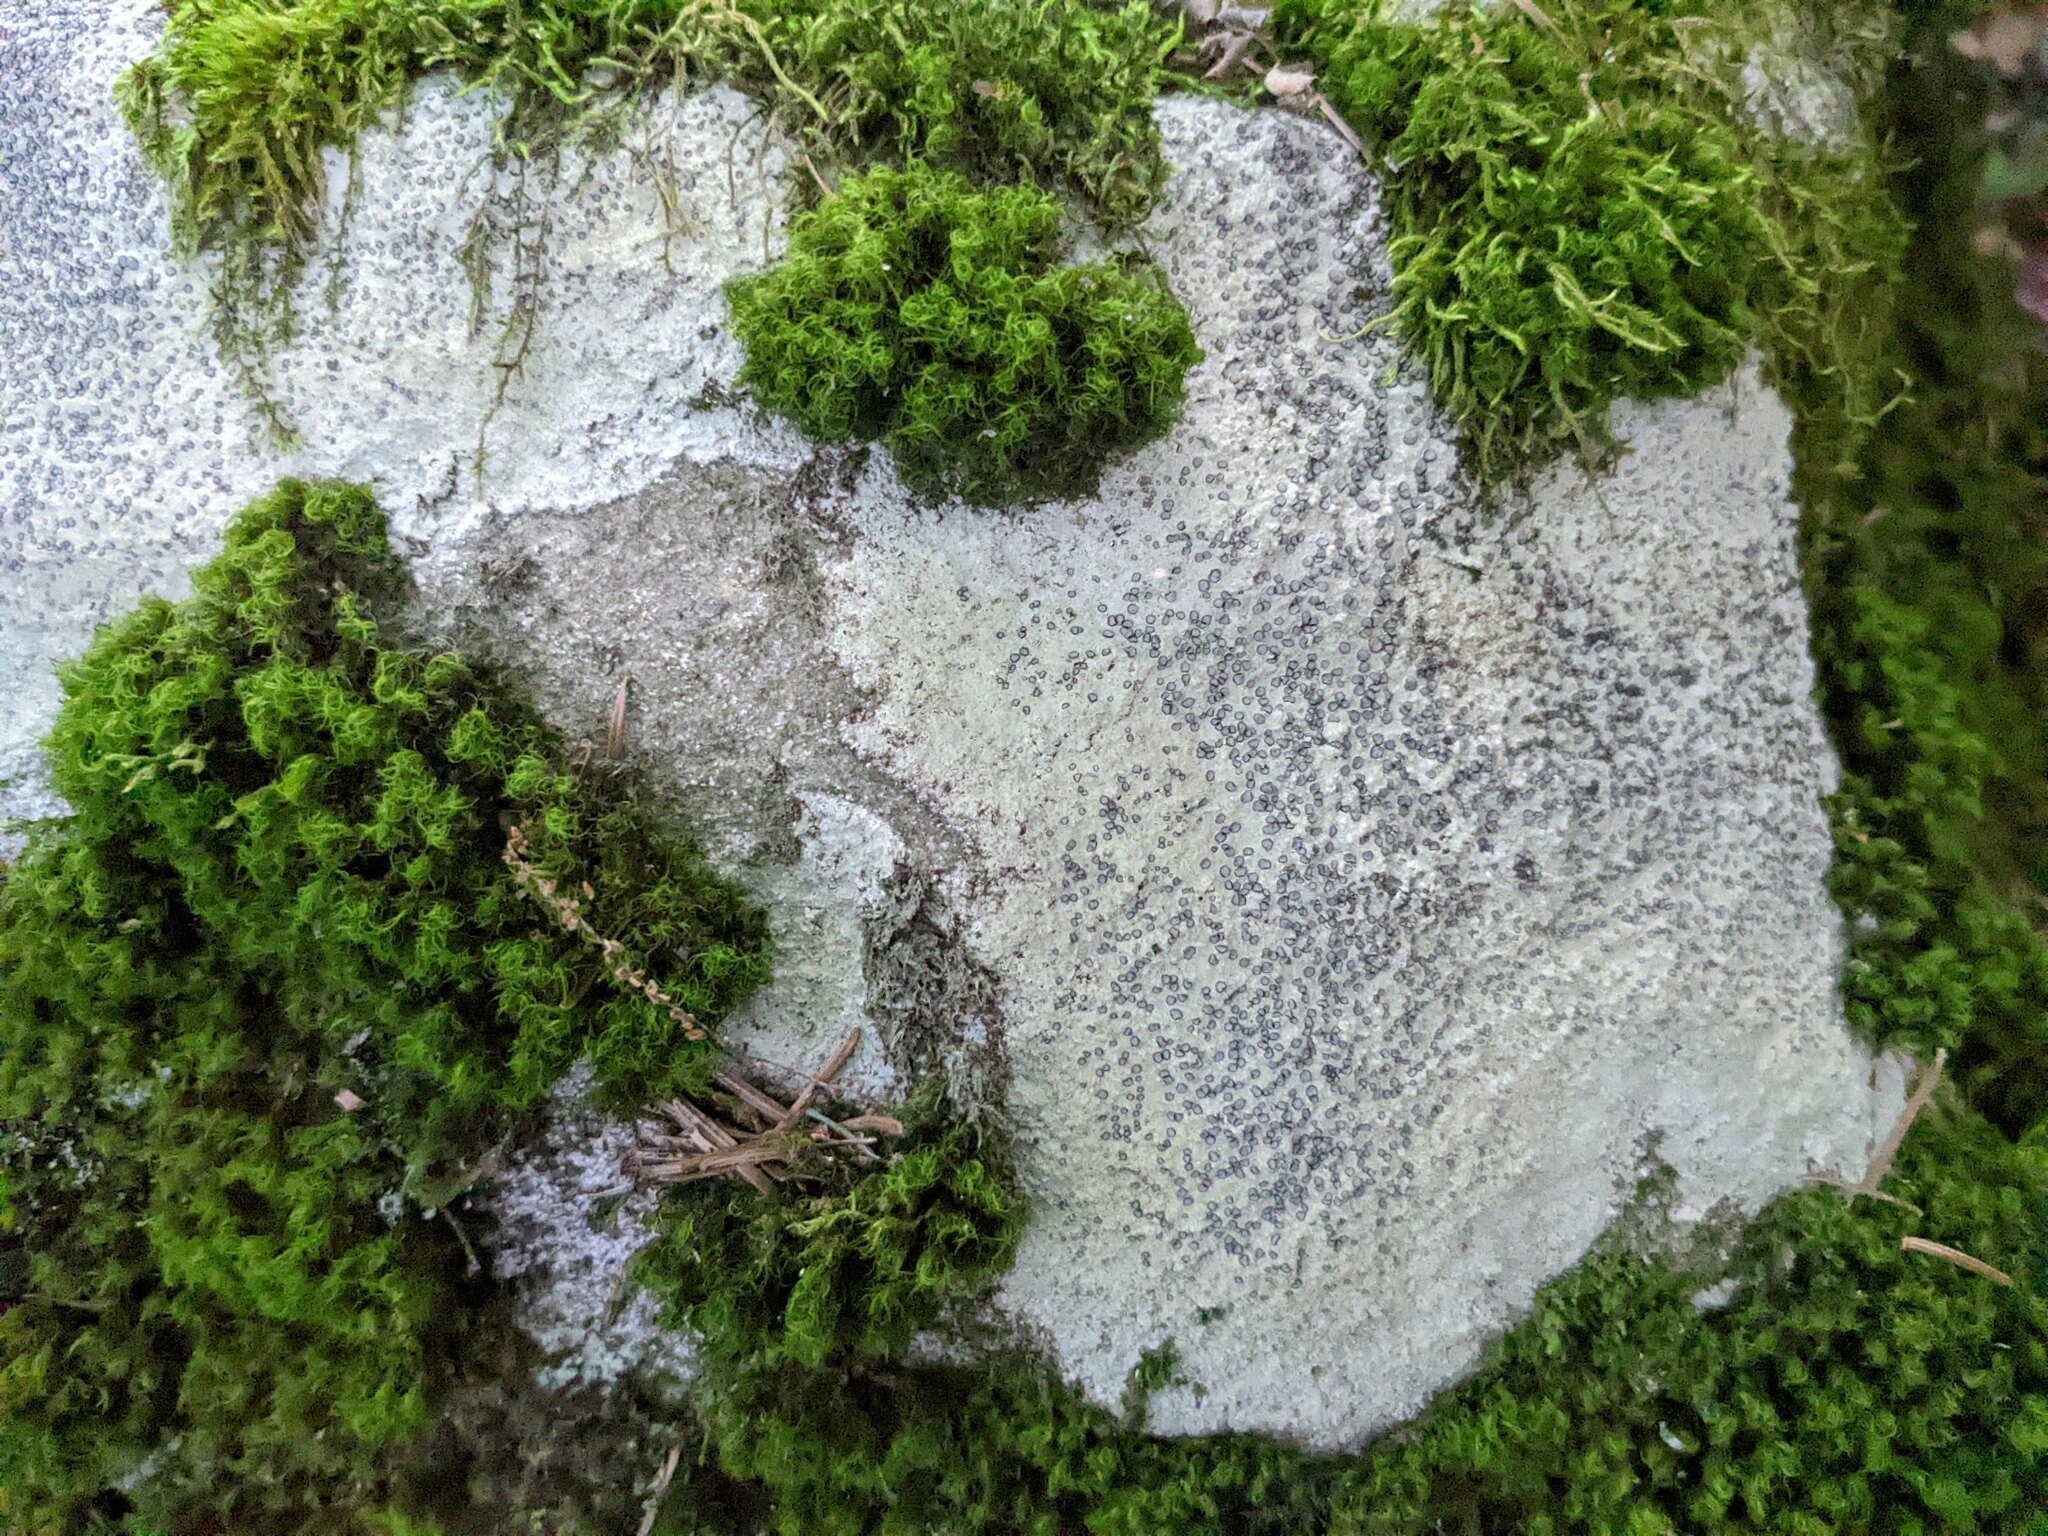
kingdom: Fungi
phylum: Ascomycota
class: Lecanoromycetes
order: Lecideales
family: Lecideaceae
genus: Porpidia
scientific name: Porpidia albocaerulescens
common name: Smokey-eyed boulder lichen
